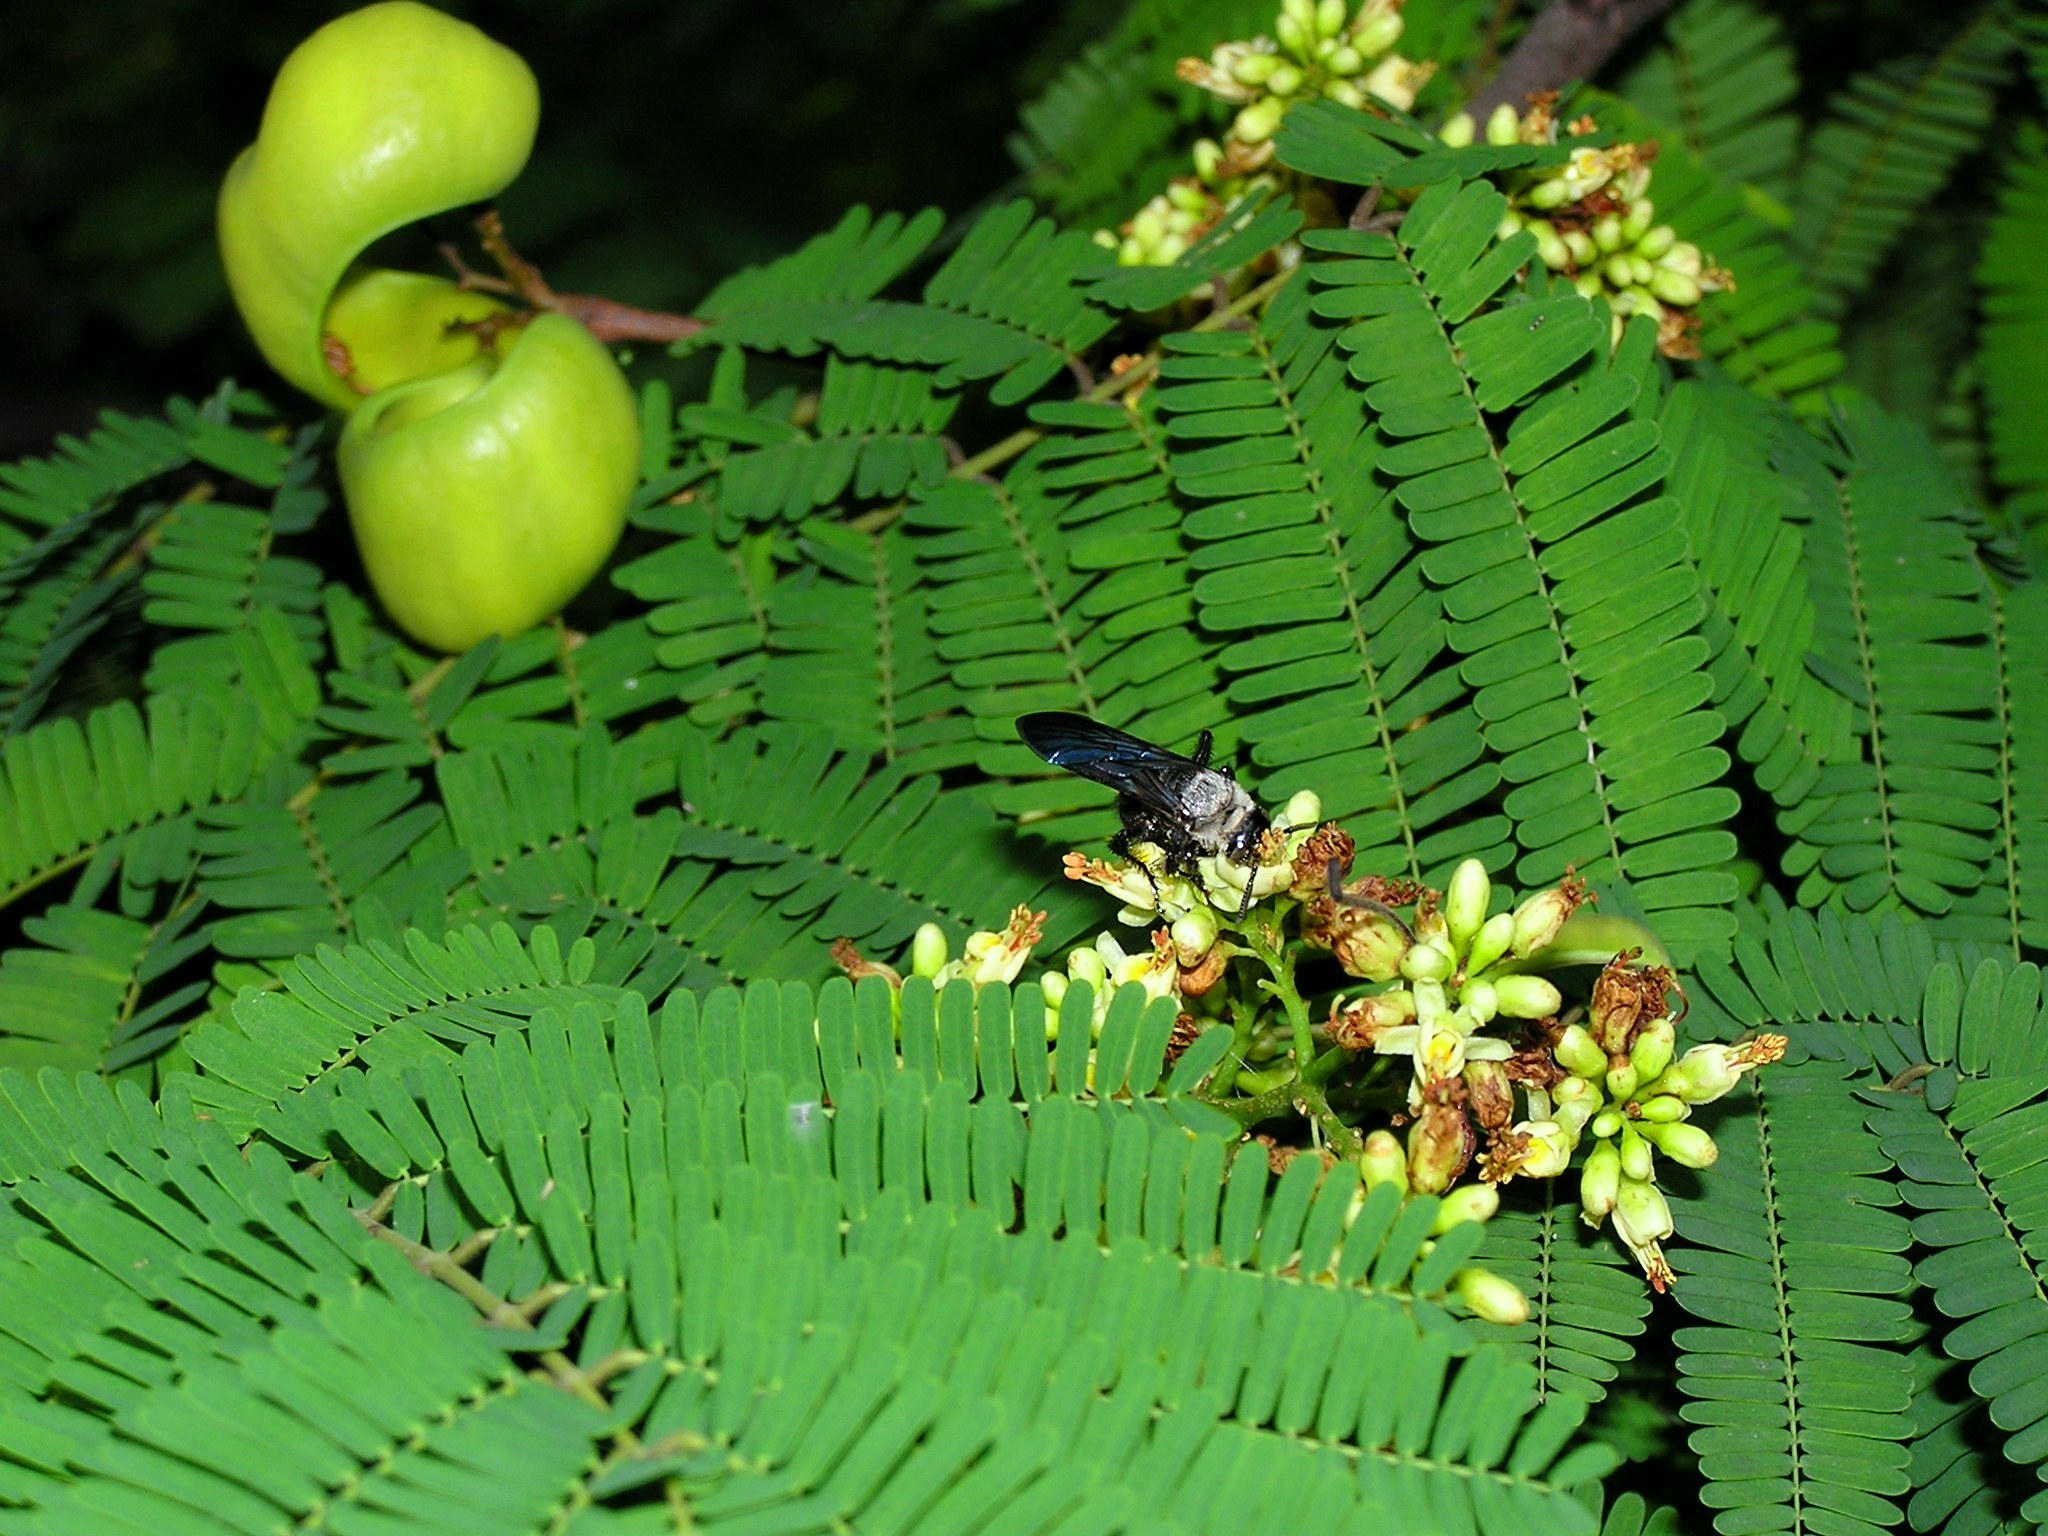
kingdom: Animalia
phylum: Arthropoda
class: Insecta
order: Hymenoptera
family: Scoliidae
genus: Campsomeriella
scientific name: Campsomeriella collaris
